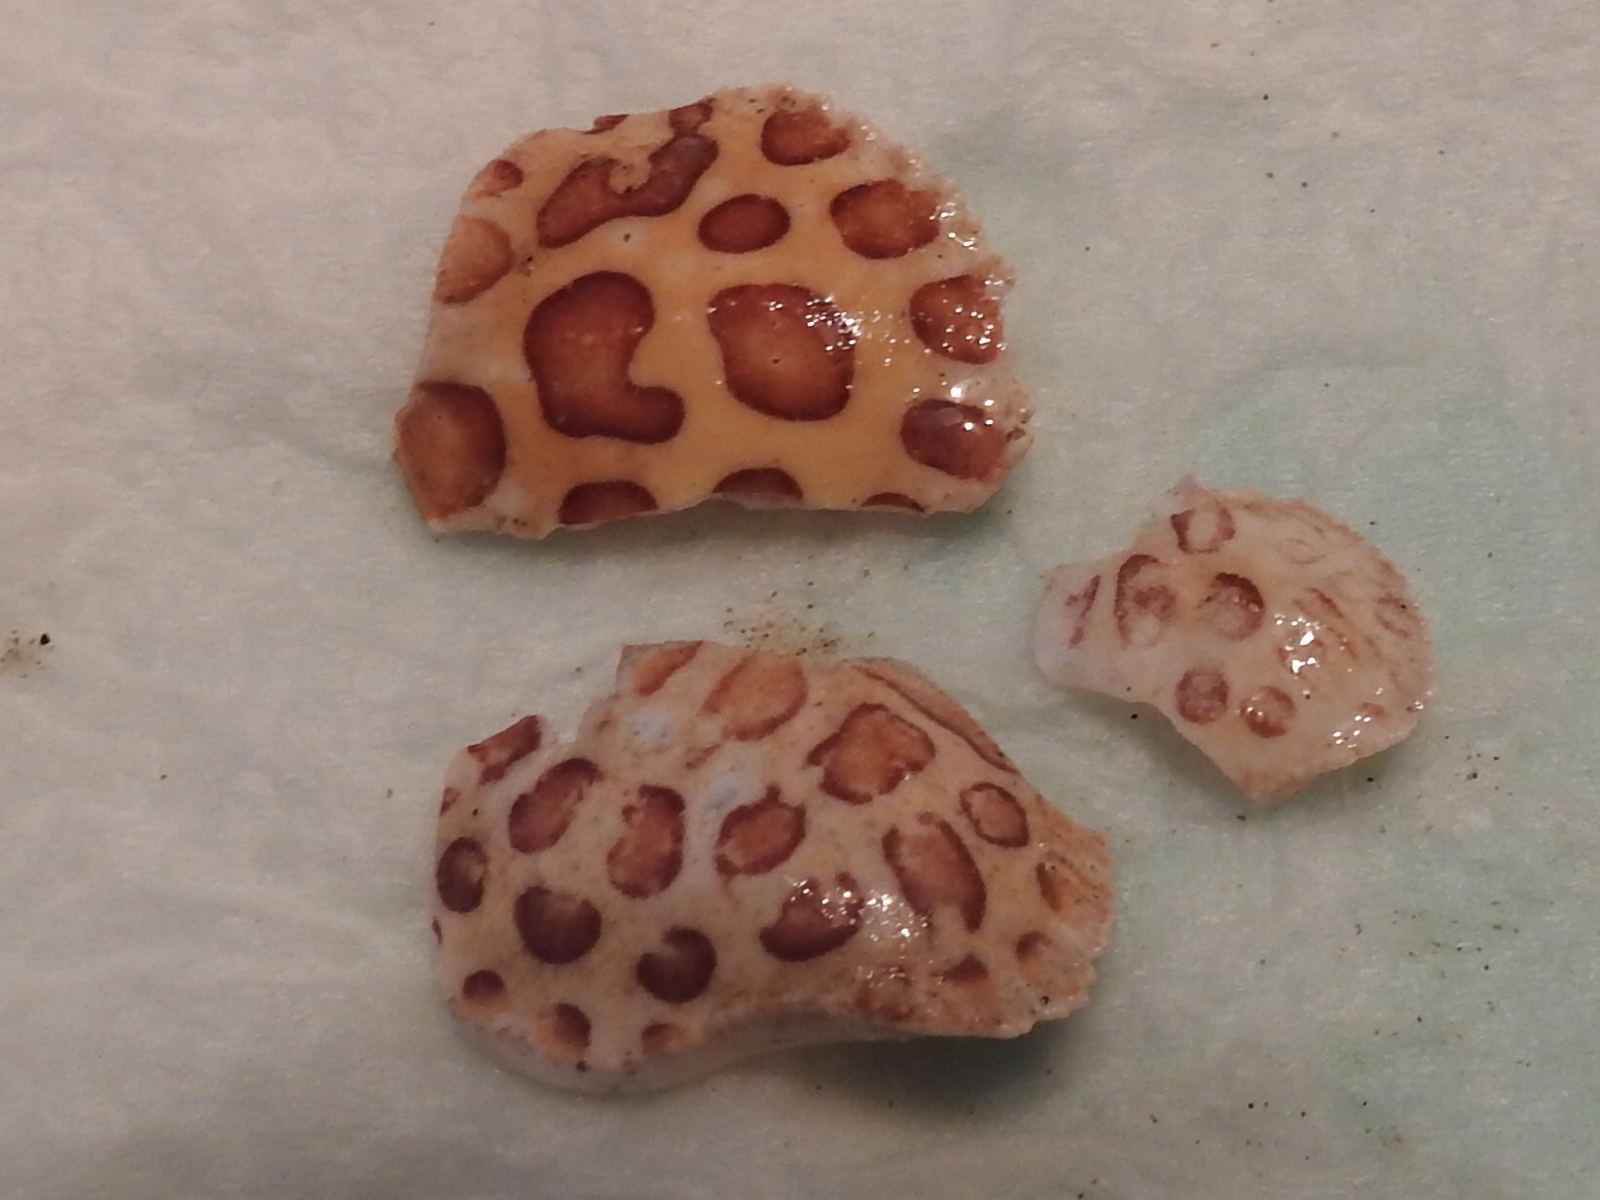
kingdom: Animalia
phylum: Arthropoda
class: Malacostraca
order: Decapoda
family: Aethridae
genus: Hepatus
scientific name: Hepatus epheliticus
